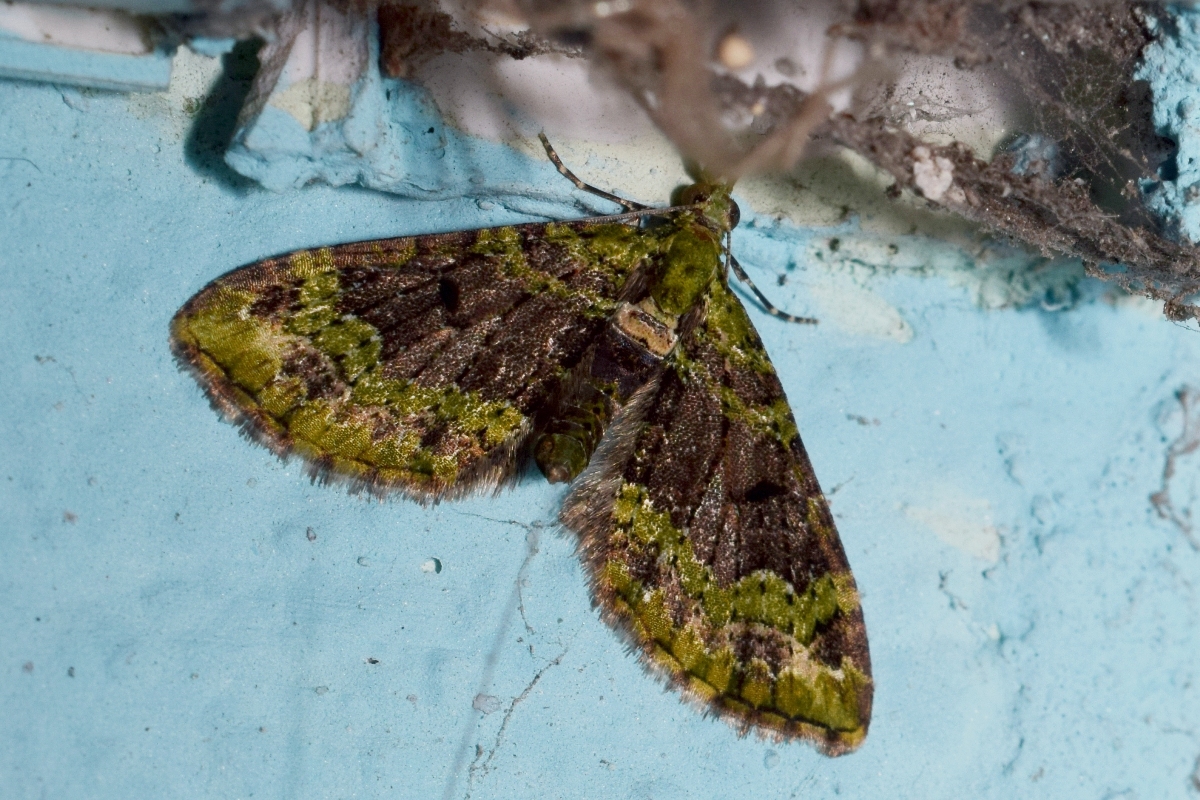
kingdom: Animalia
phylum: Arthropoda
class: Insecta
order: Lepidoptera
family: Geometridae
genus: Pasiphila
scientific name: Pasiphila palpata
